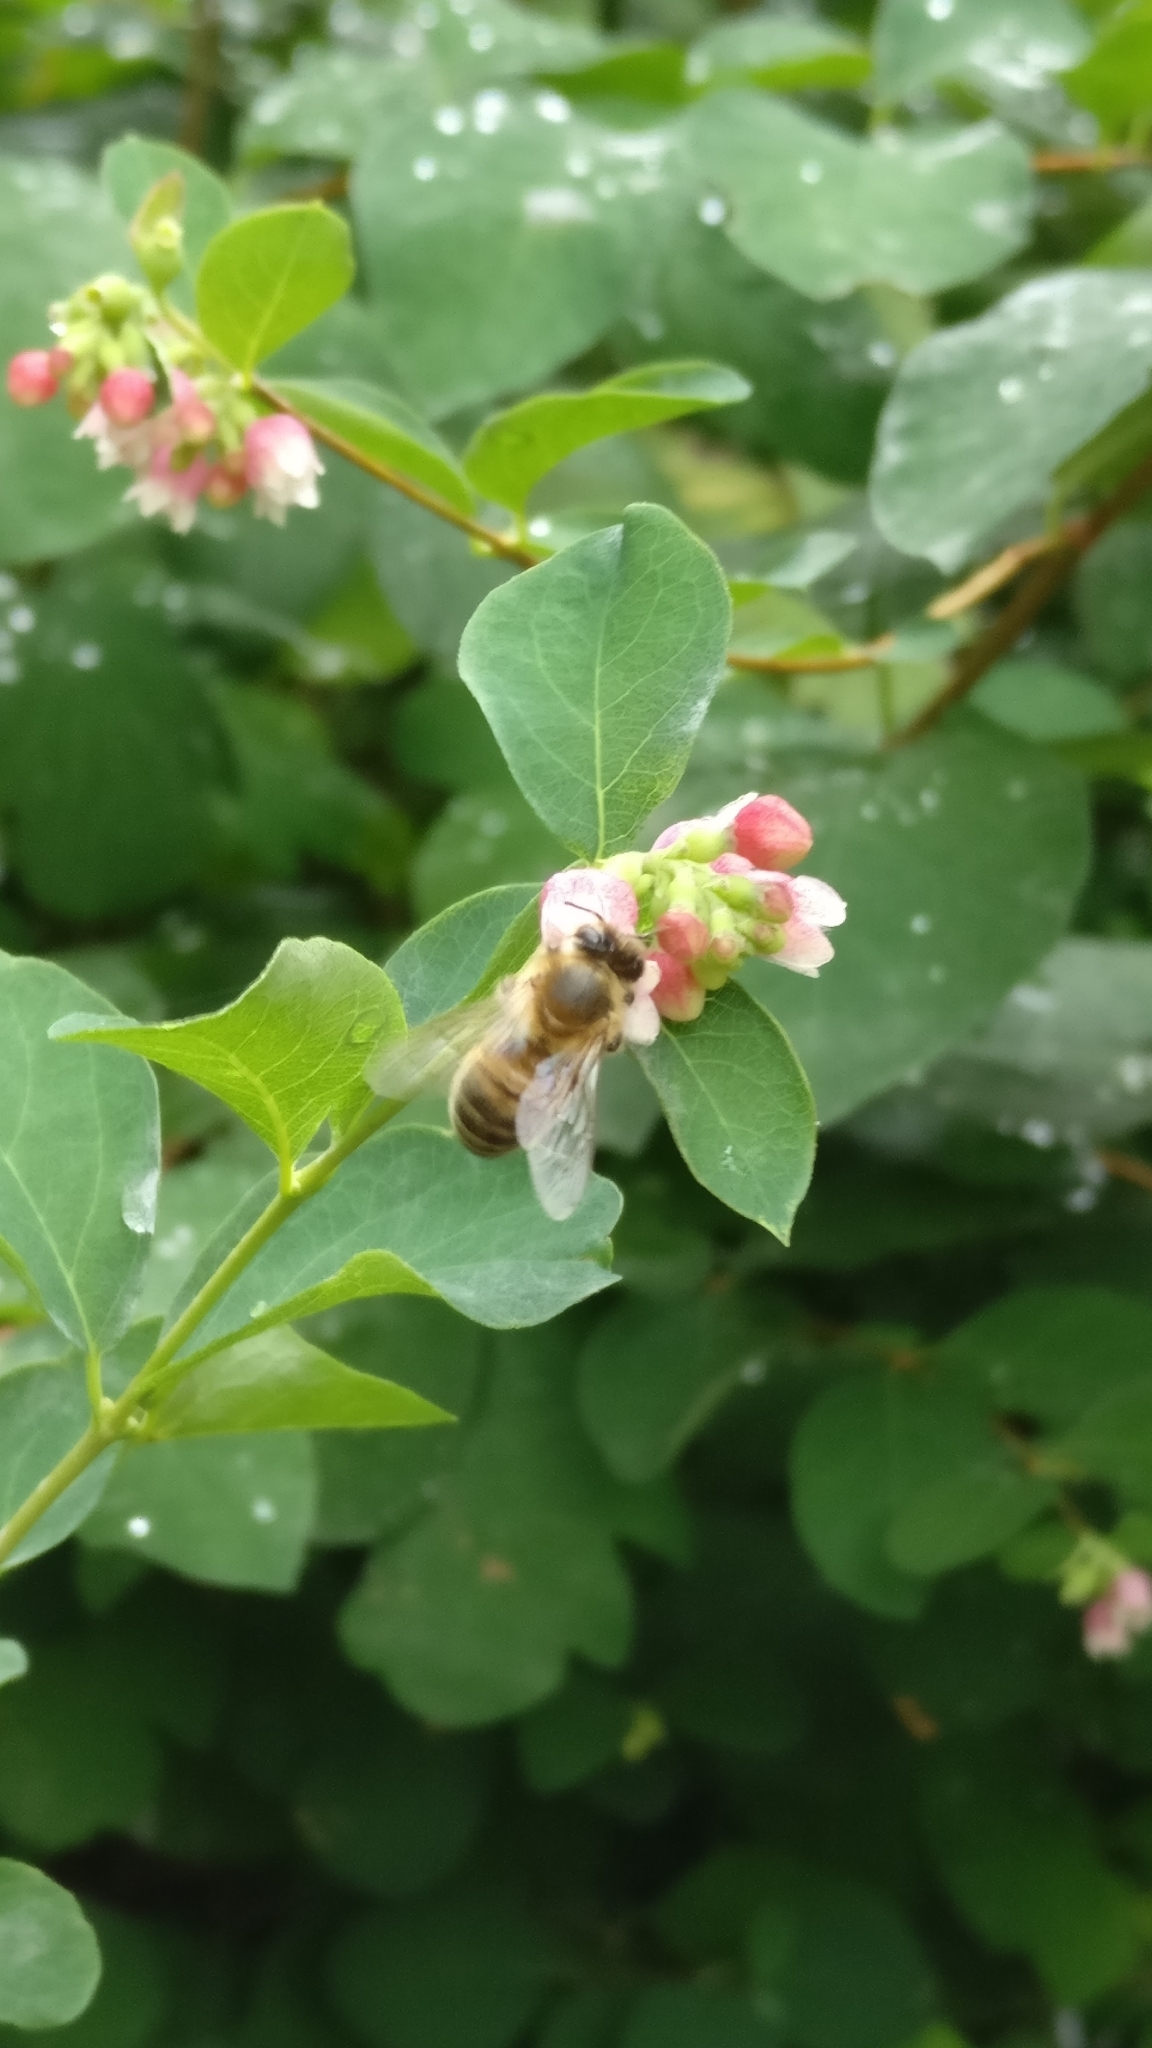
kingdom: Animalia
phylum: Arthropoda
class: Insecta
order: Hymenoptera
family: Apidae
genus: Apis
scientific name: Apis mellifera
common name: Honey bee
